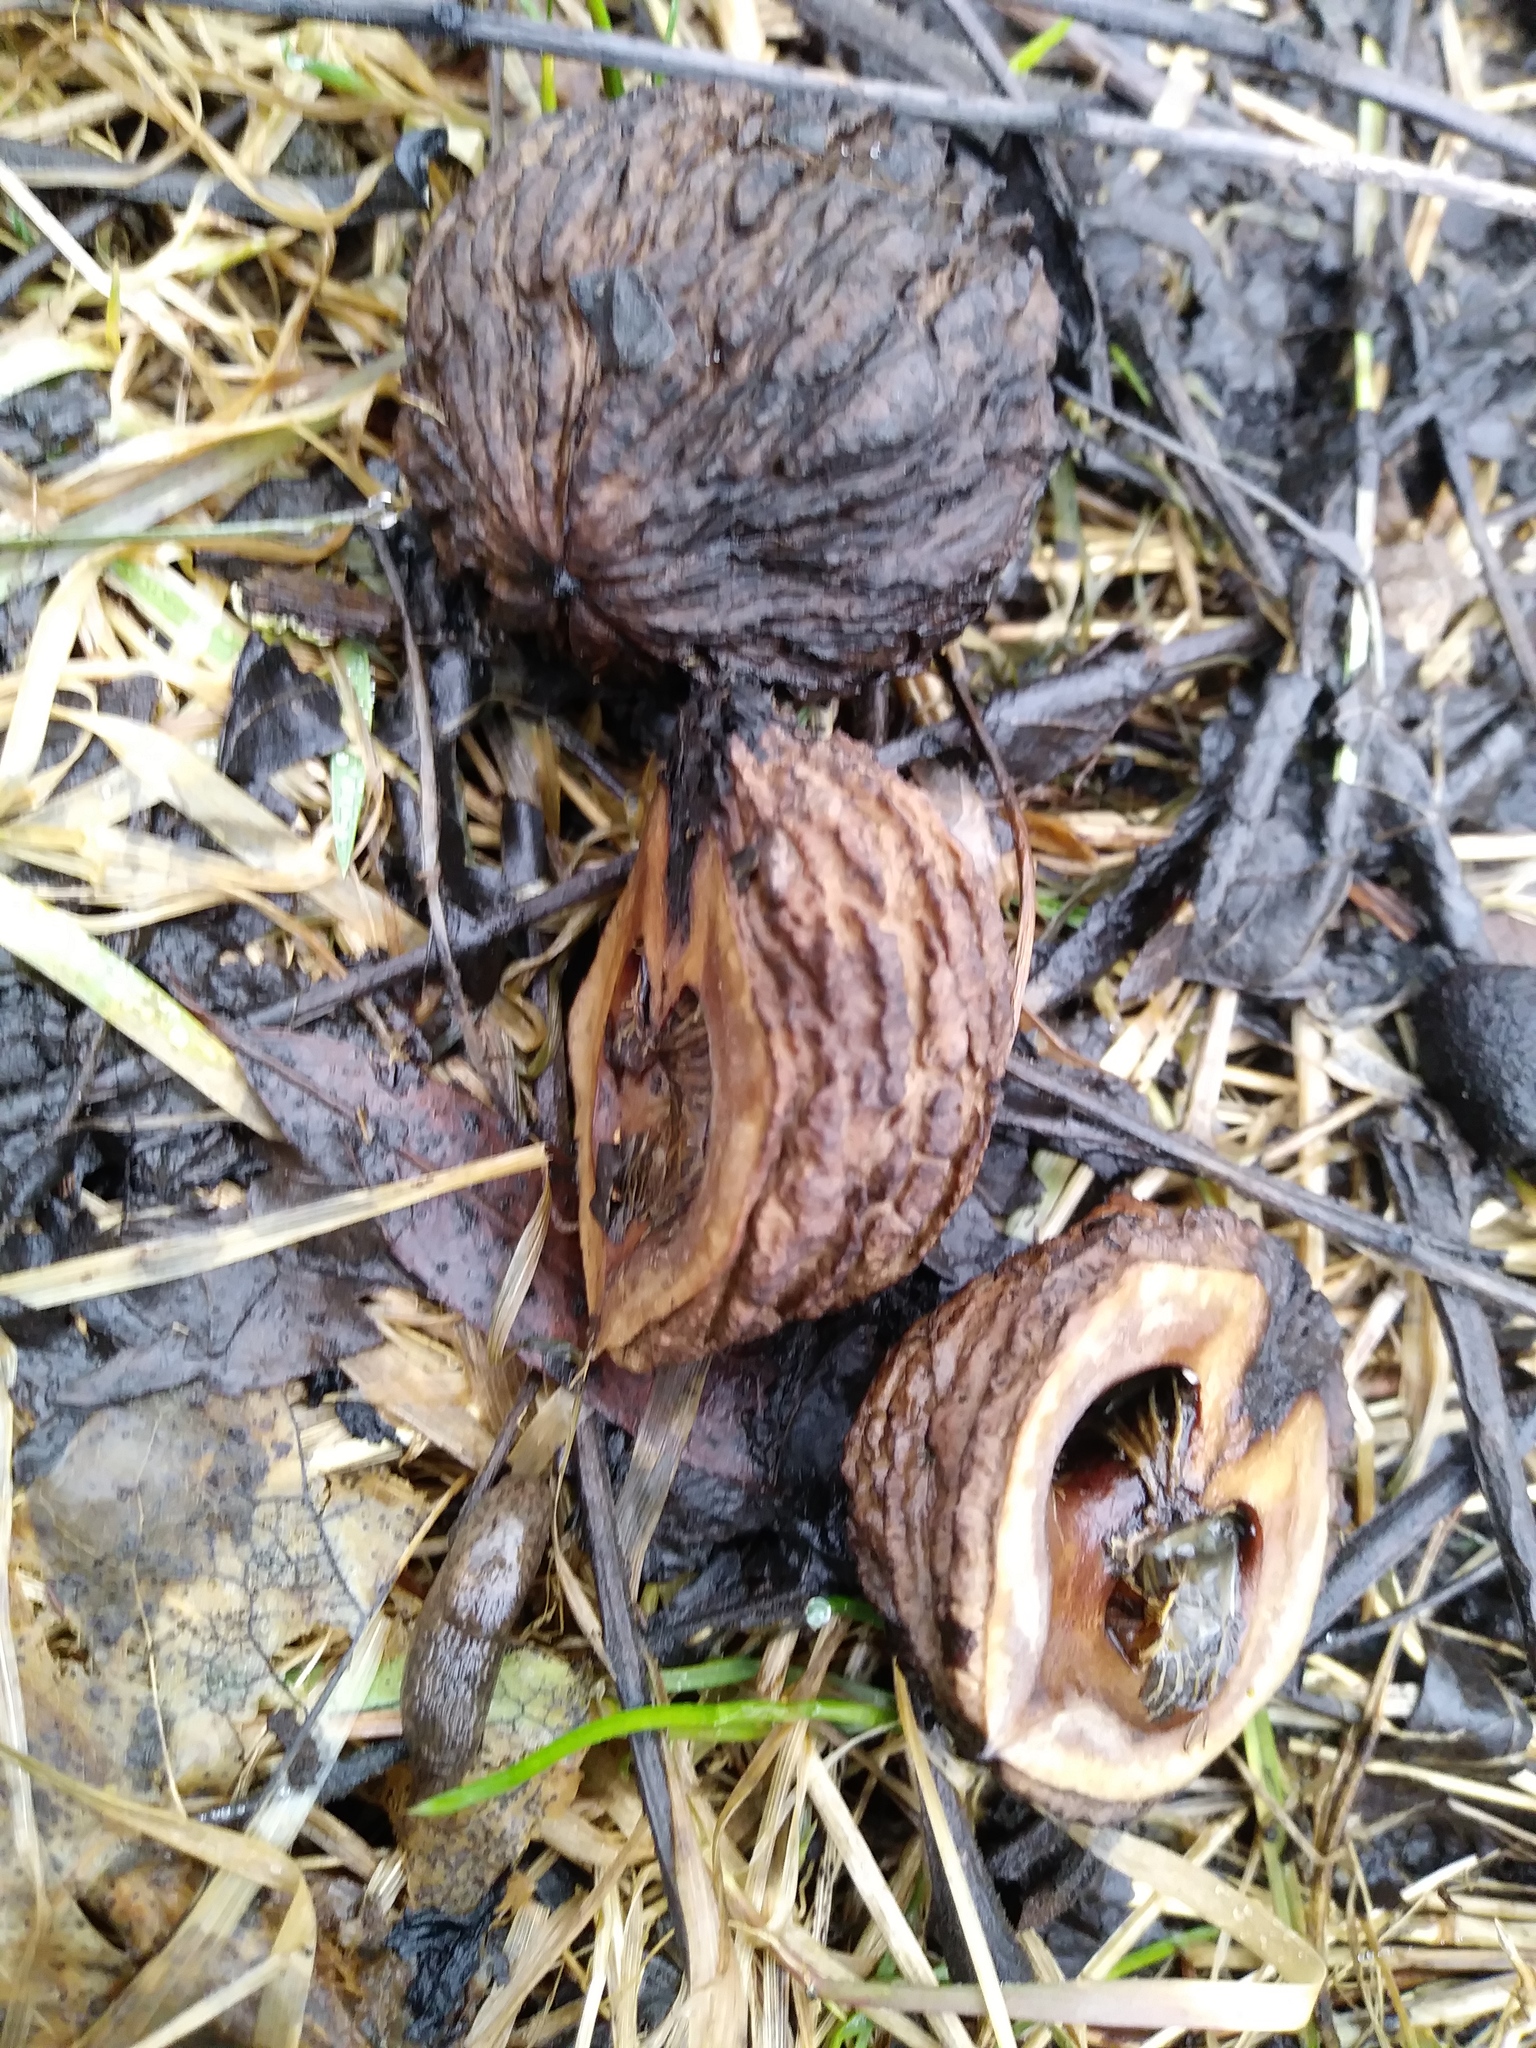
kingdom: Plantae
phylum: Tracheophyta
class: Magnoliopsida
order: Fagales
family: Juglandaceae
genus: Juglans
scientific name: Juglans nigra
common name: Black walnut
